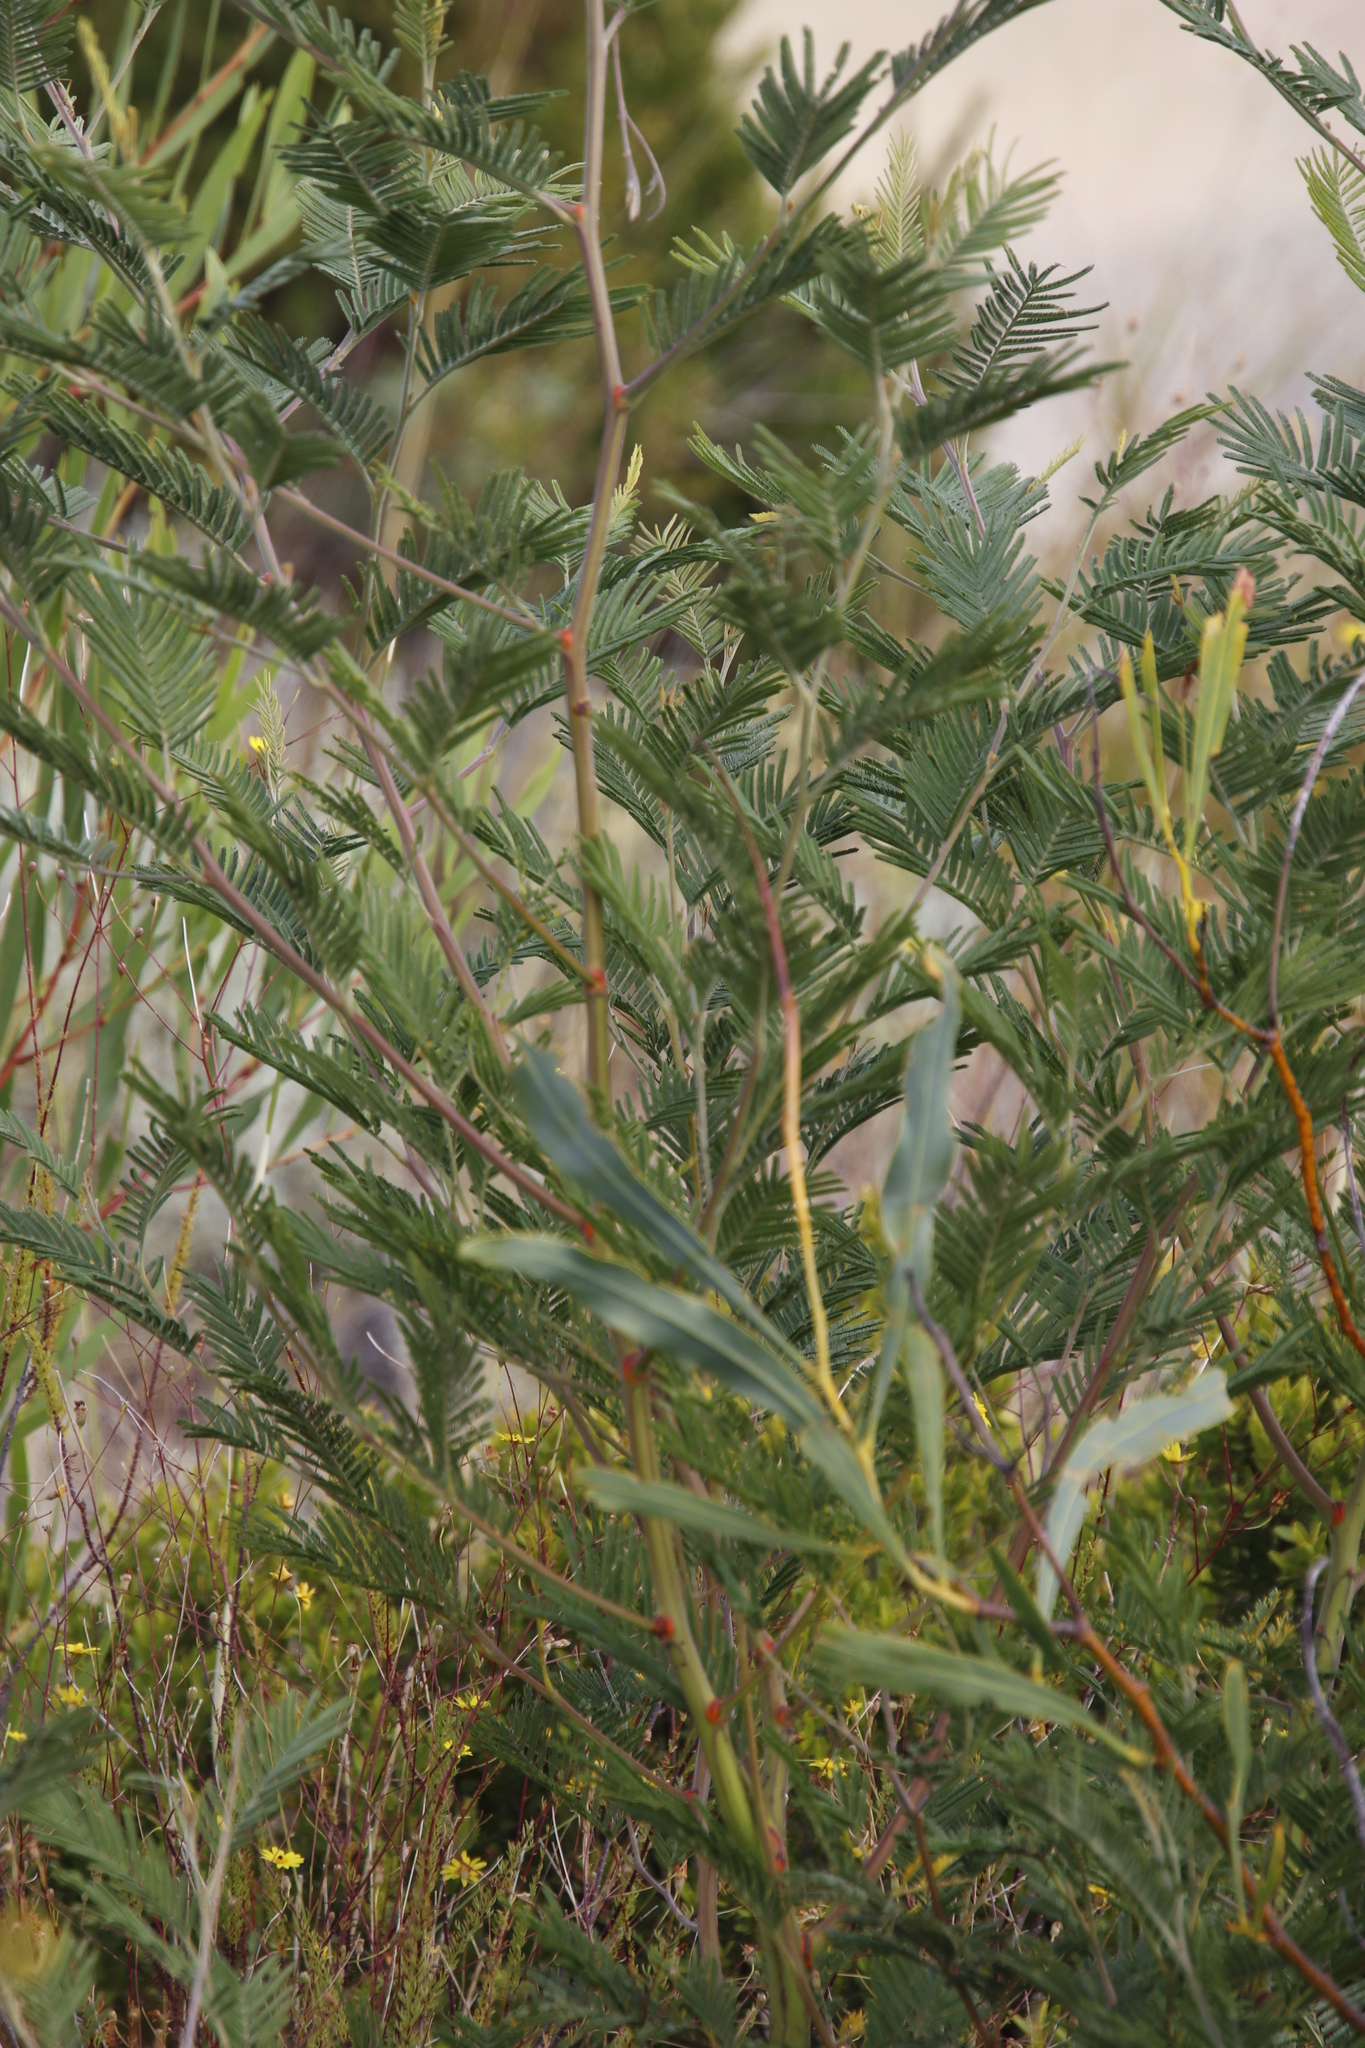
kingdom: Plantae
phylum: Tracheophyta
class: Magnoliopsida
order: Fabales
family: Fabaceae
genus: Acacia
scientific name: Acacia mearnsii
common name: Black wattle
